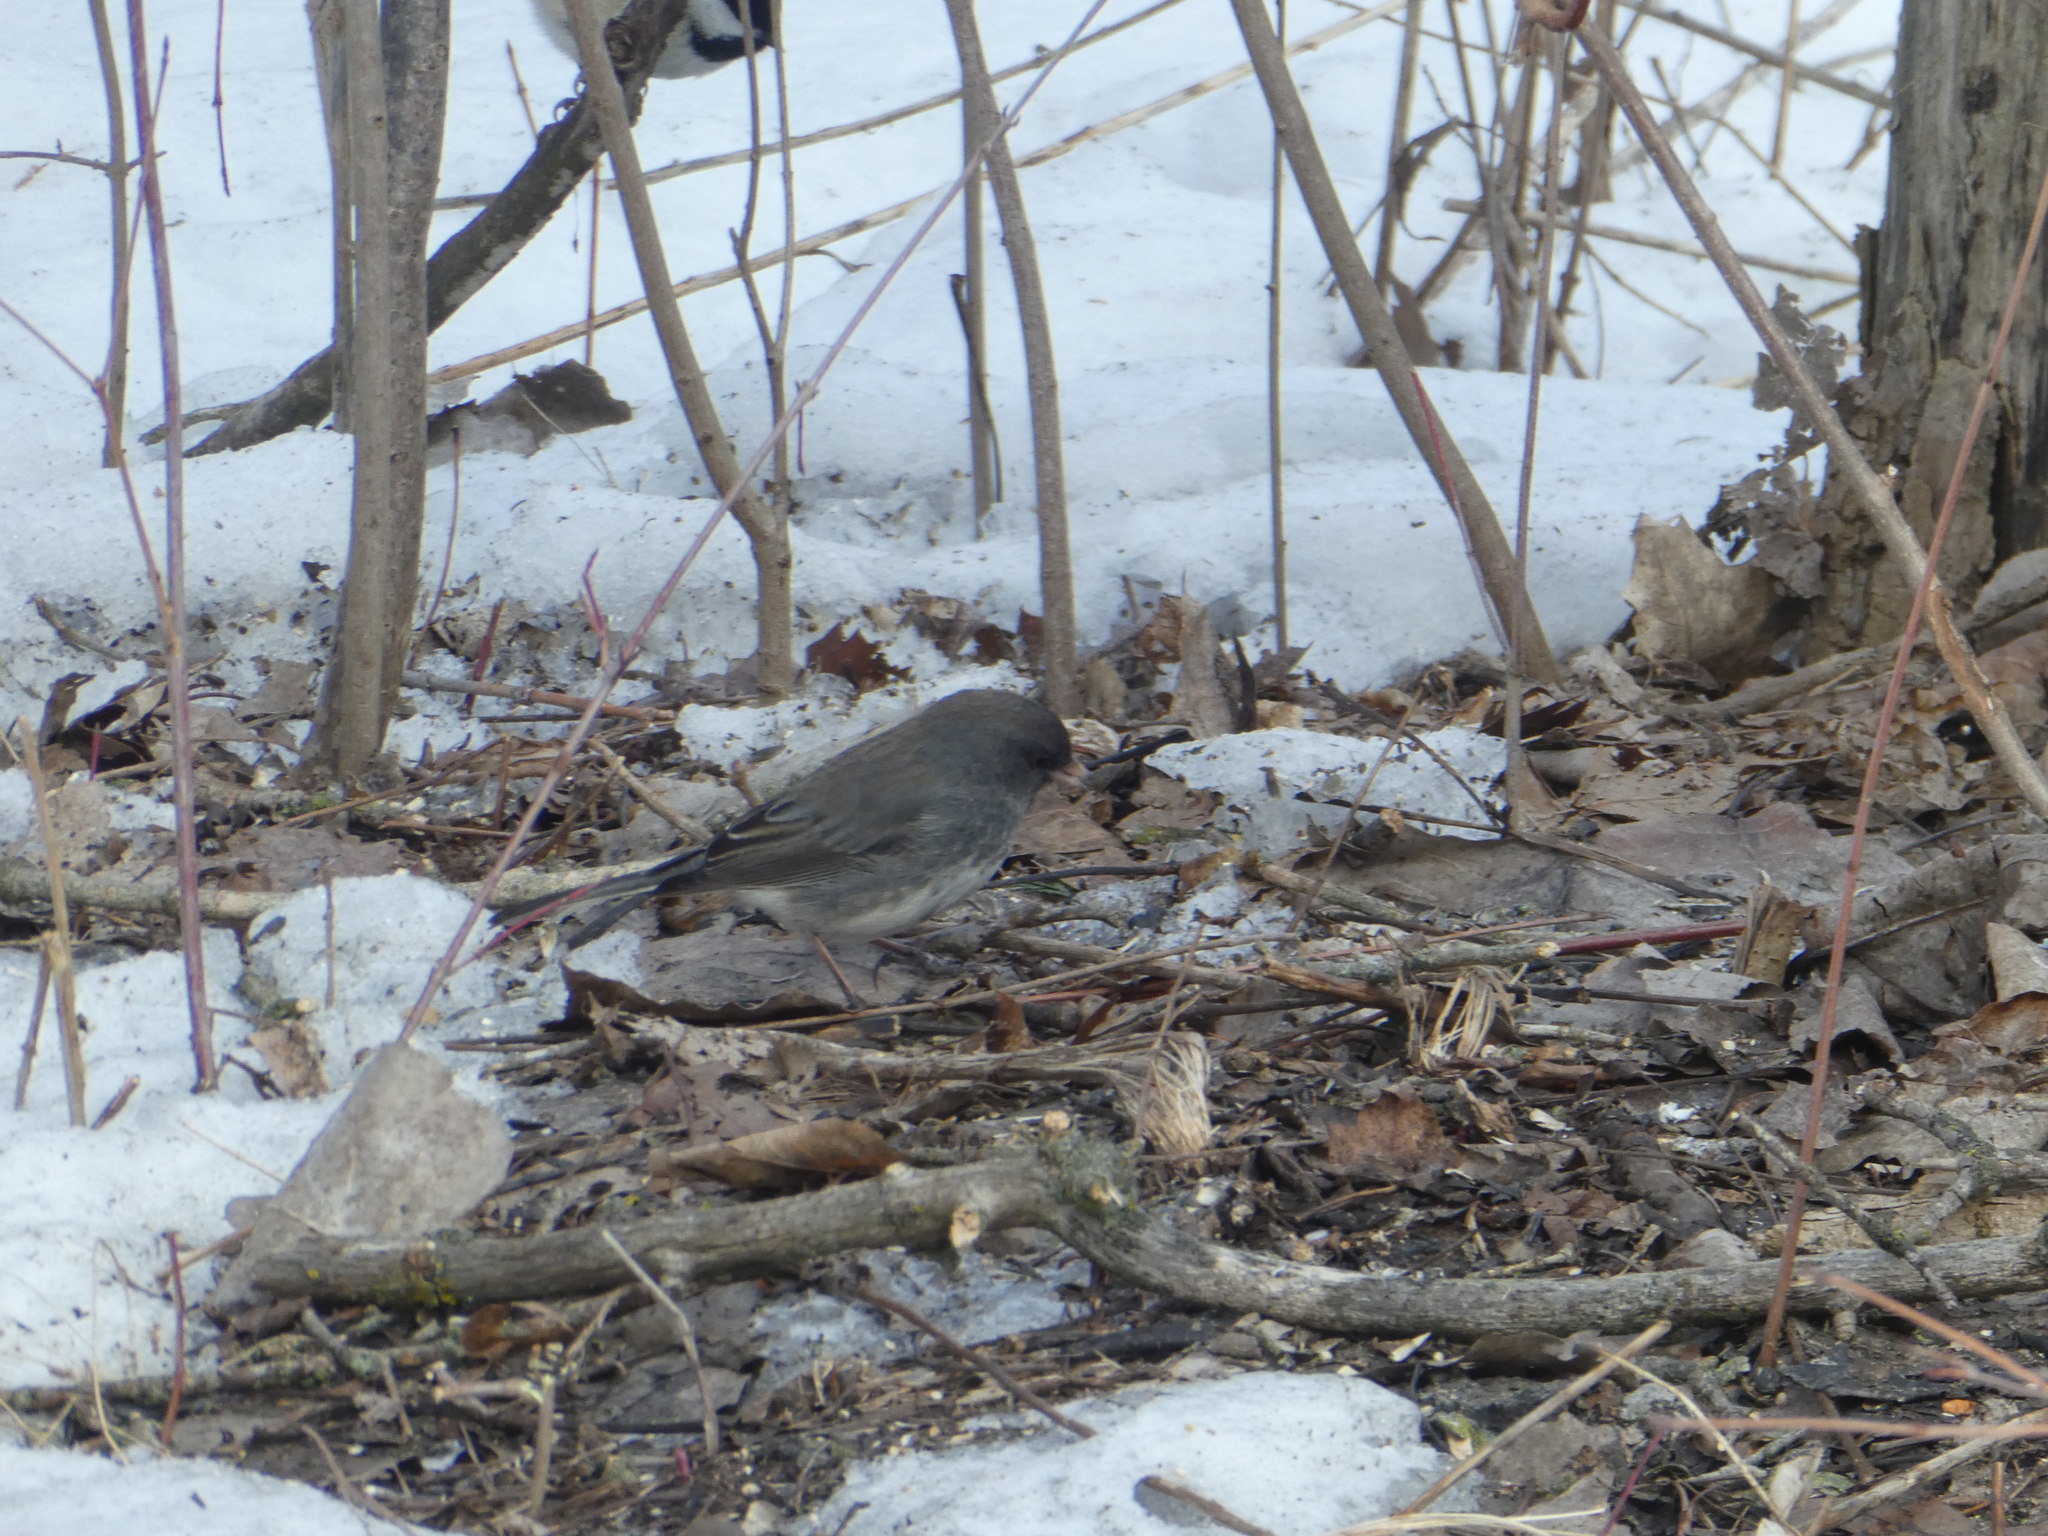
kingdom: Animalia
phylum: Chordata
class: Aves
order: Passeriformes
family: Passerellidae
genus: Junco
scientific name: Junco hyemalis
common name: Dark-eyed junco
